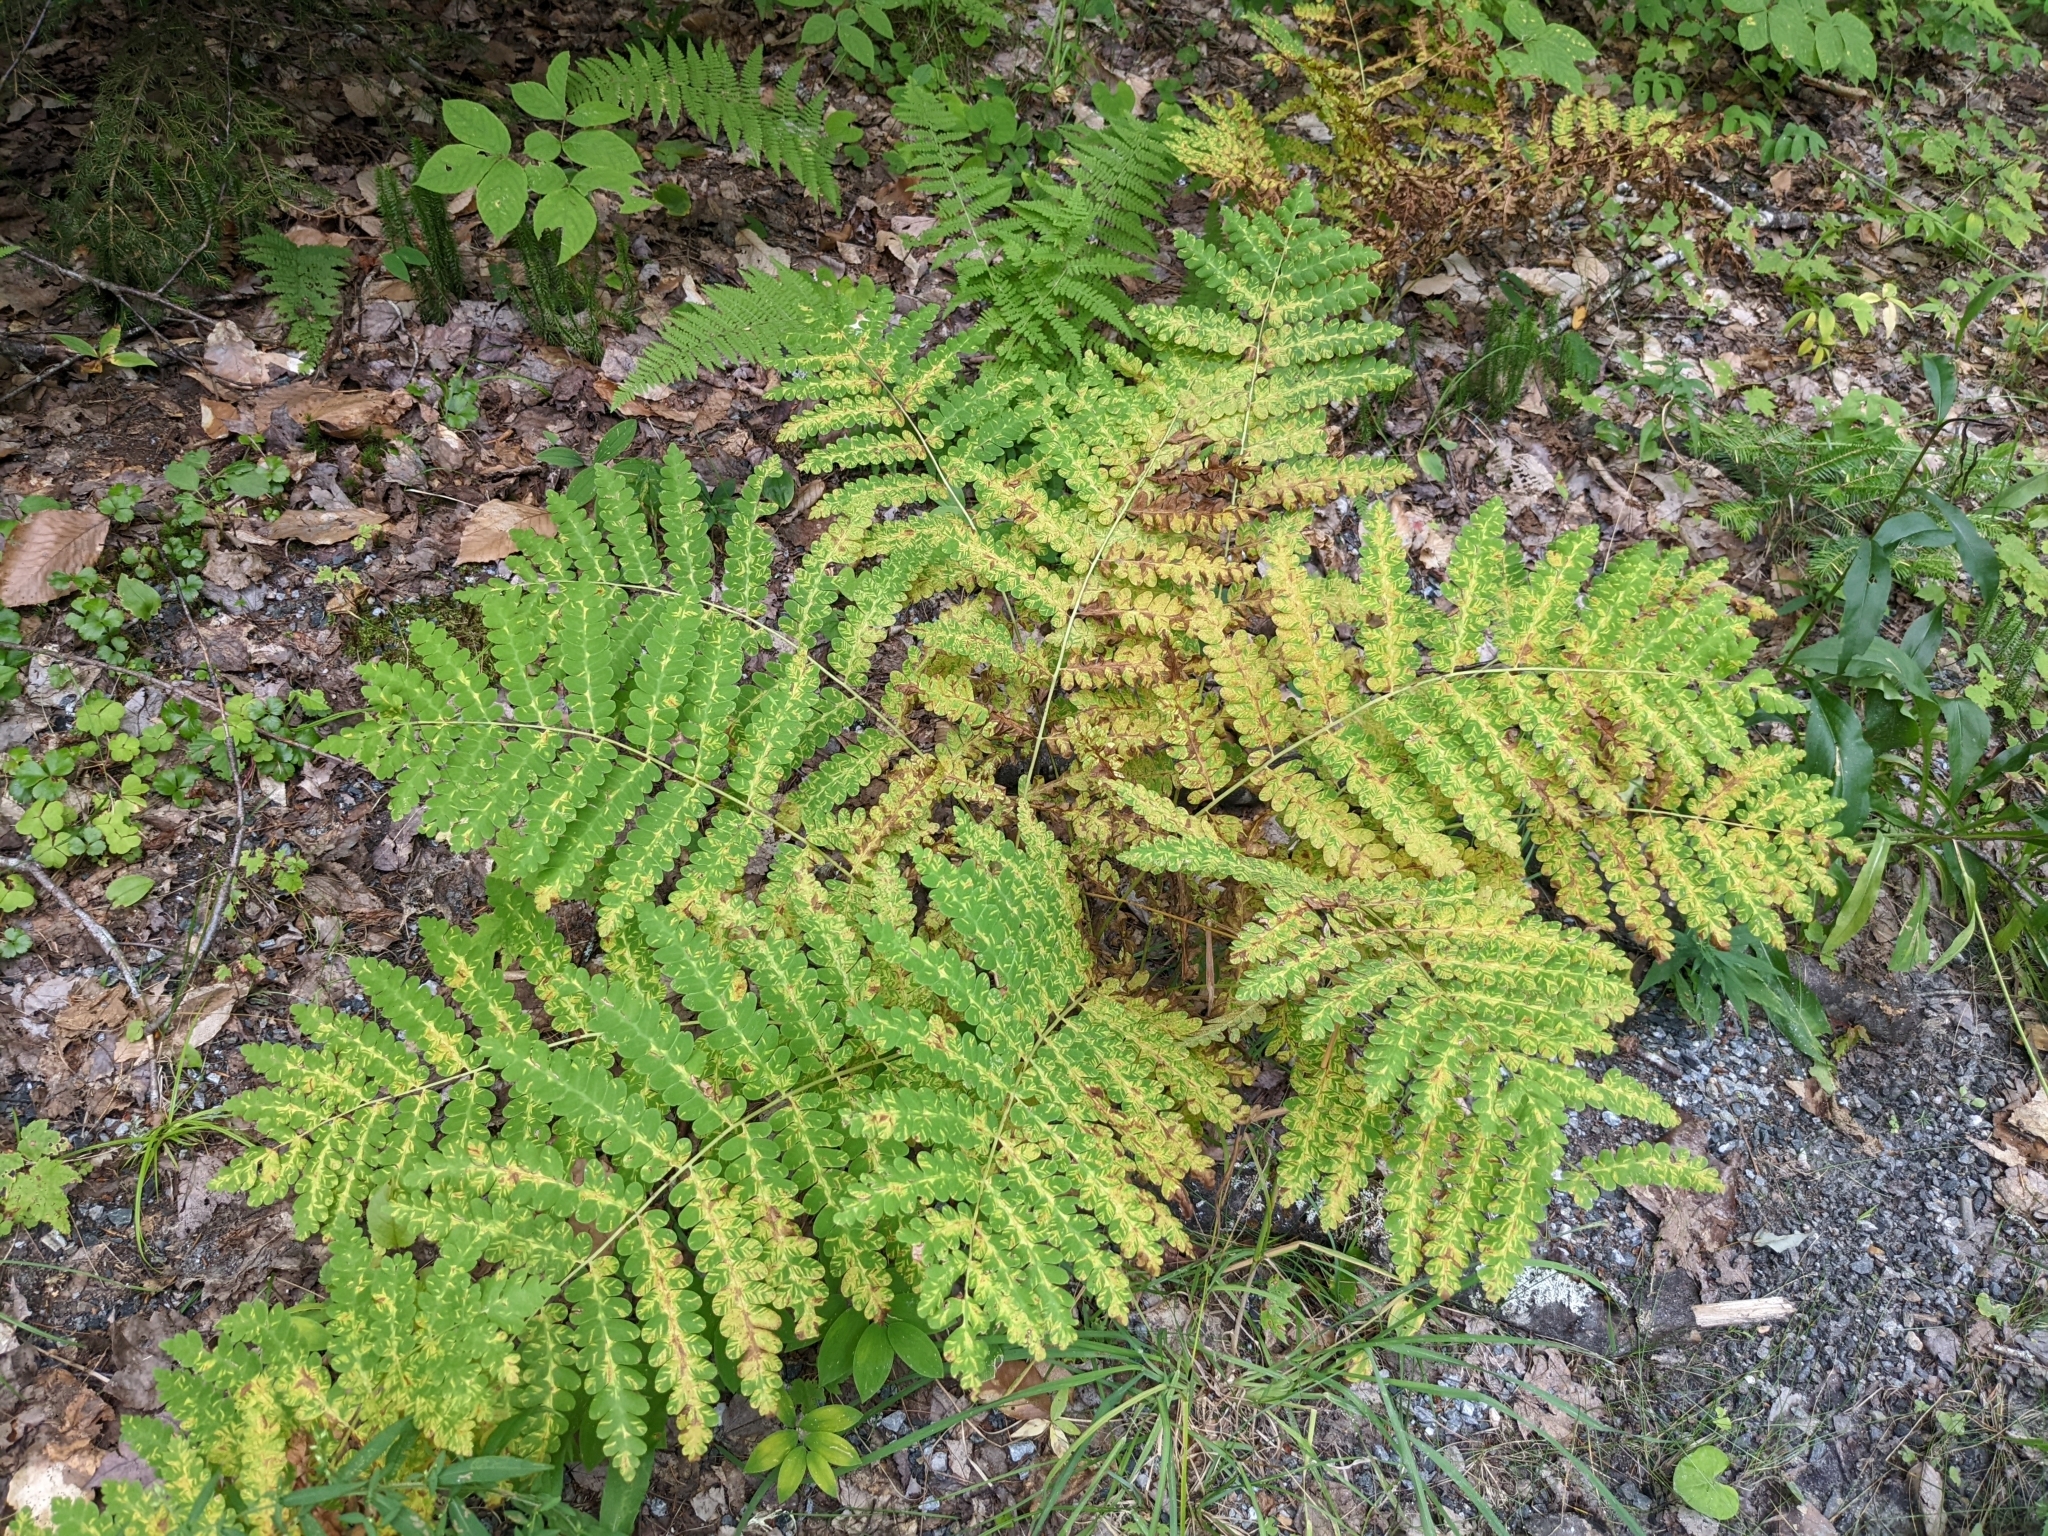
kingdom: Plantae
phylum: Tracheophyta
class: Polypodiopsida
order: Osmundales
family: Osmundaceae
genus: Claytosmunda
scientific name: Claytosmunda claytoniana
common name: Clayton's fern
